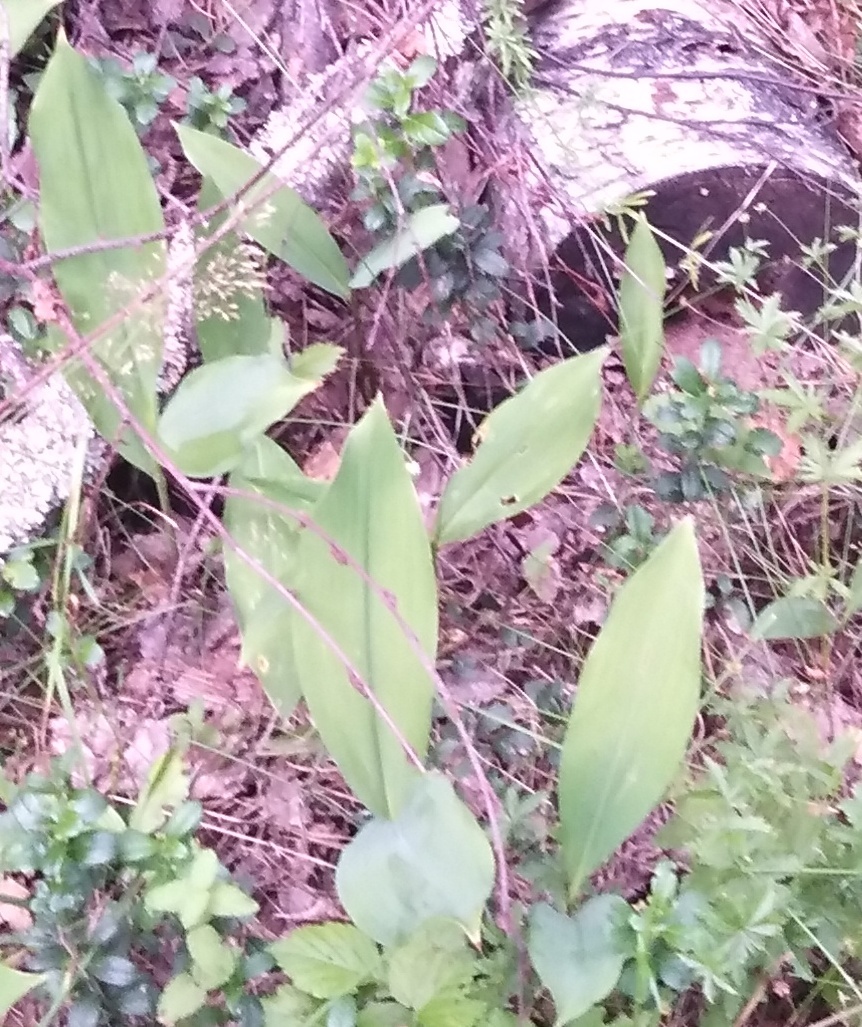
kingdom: Plantae
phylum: Tracheophyta
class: Liliopsida
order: Asparagales
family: Asparagaceae
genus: Convallaria
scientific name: Convallaria majalis
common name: Lily-of-the-valley
